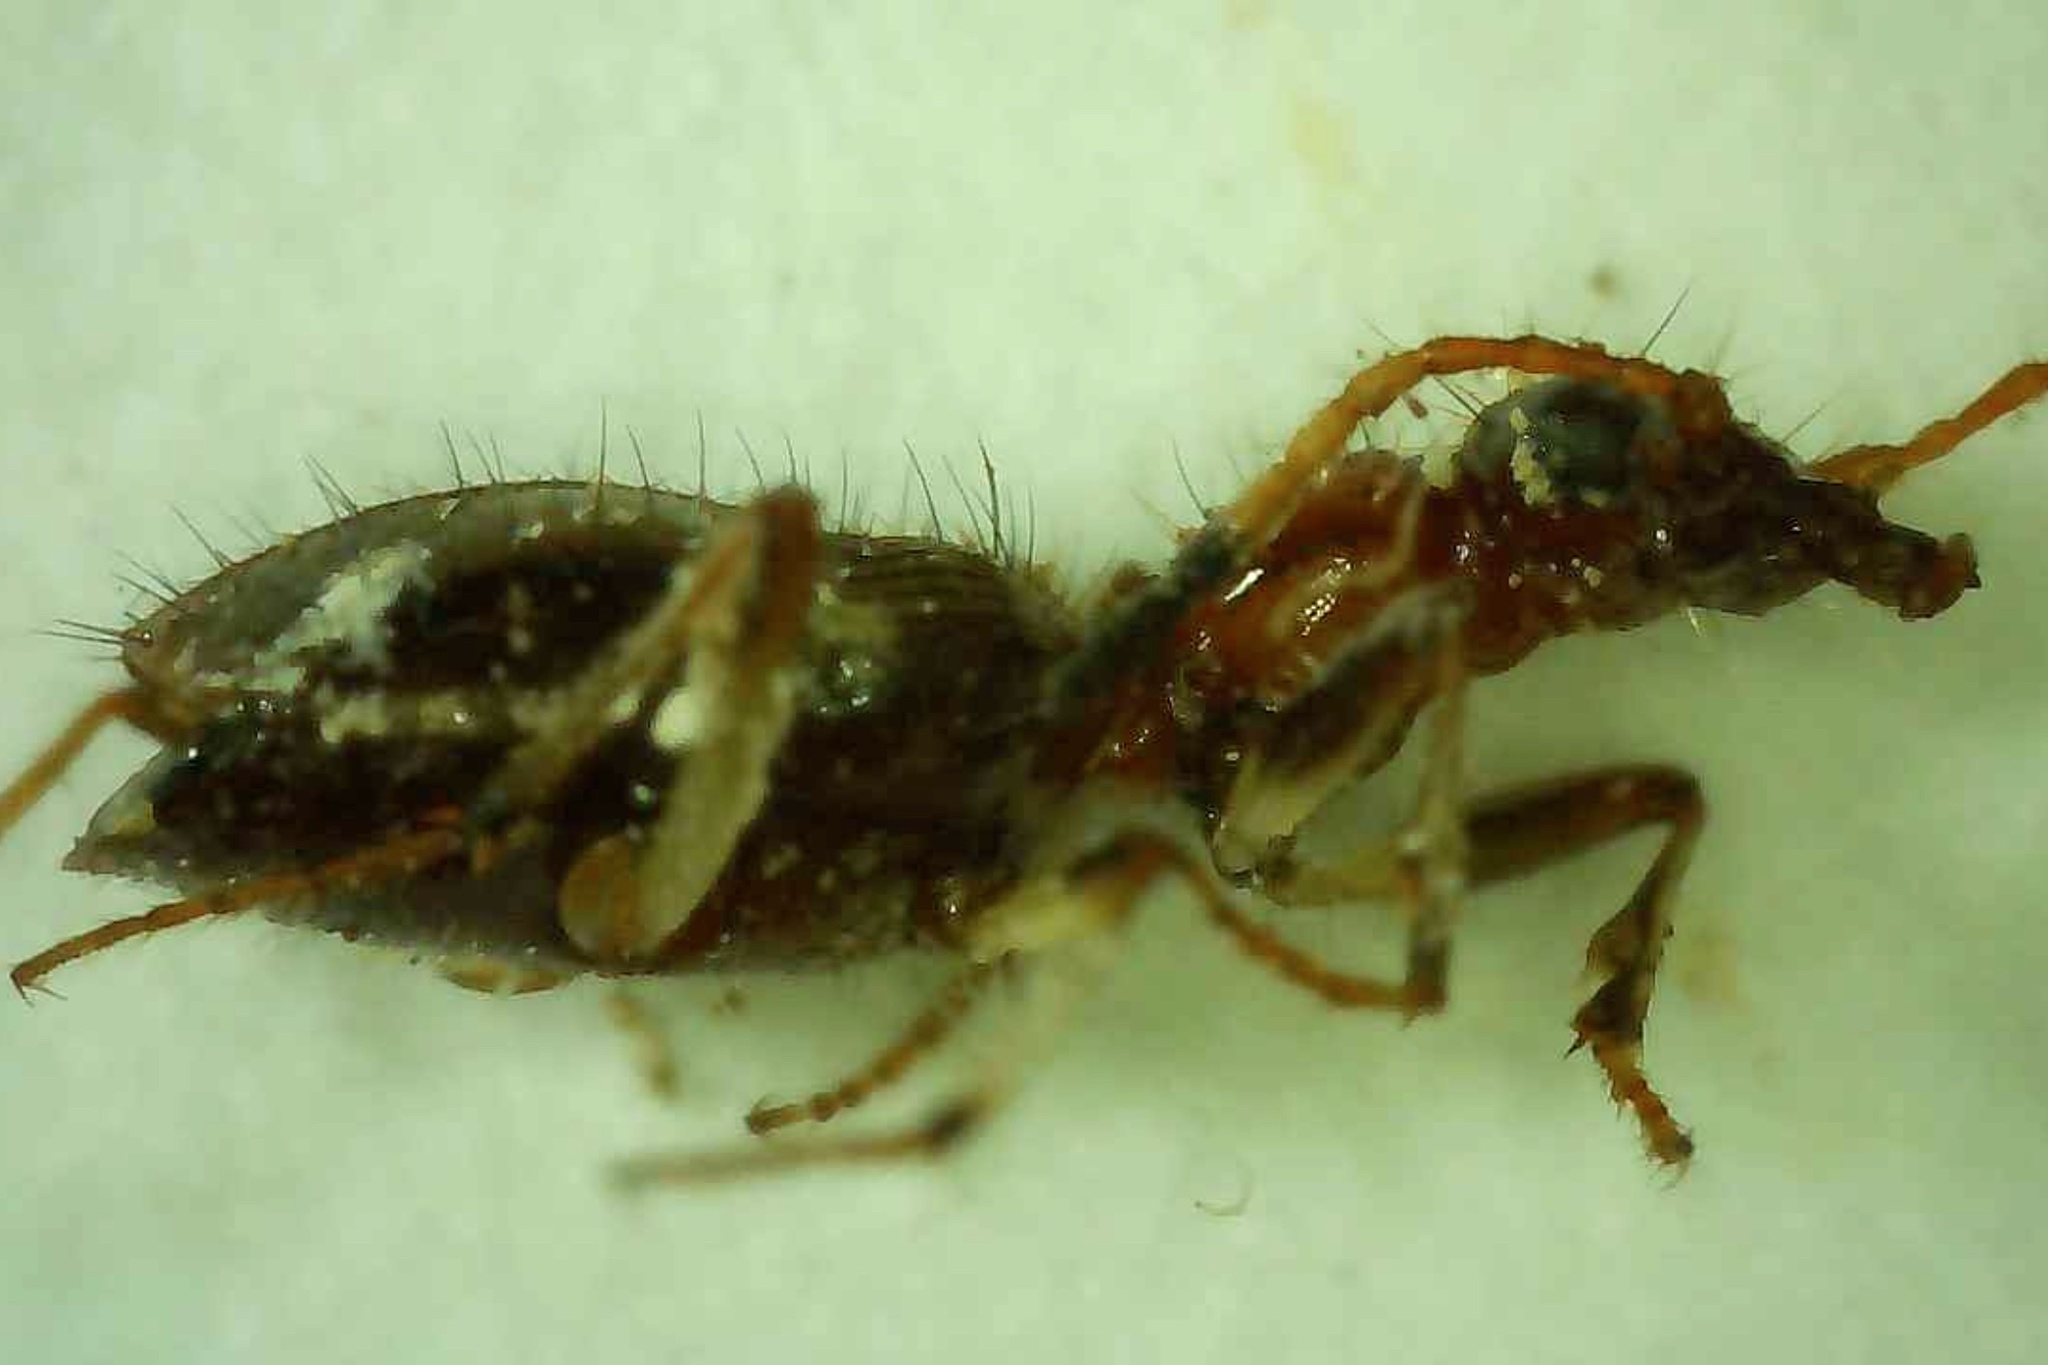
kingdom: Animalia
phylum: Arthropoda
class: Insecta
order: Coleoptera
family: Carabidae
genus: Ega
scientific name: Ega sallei
